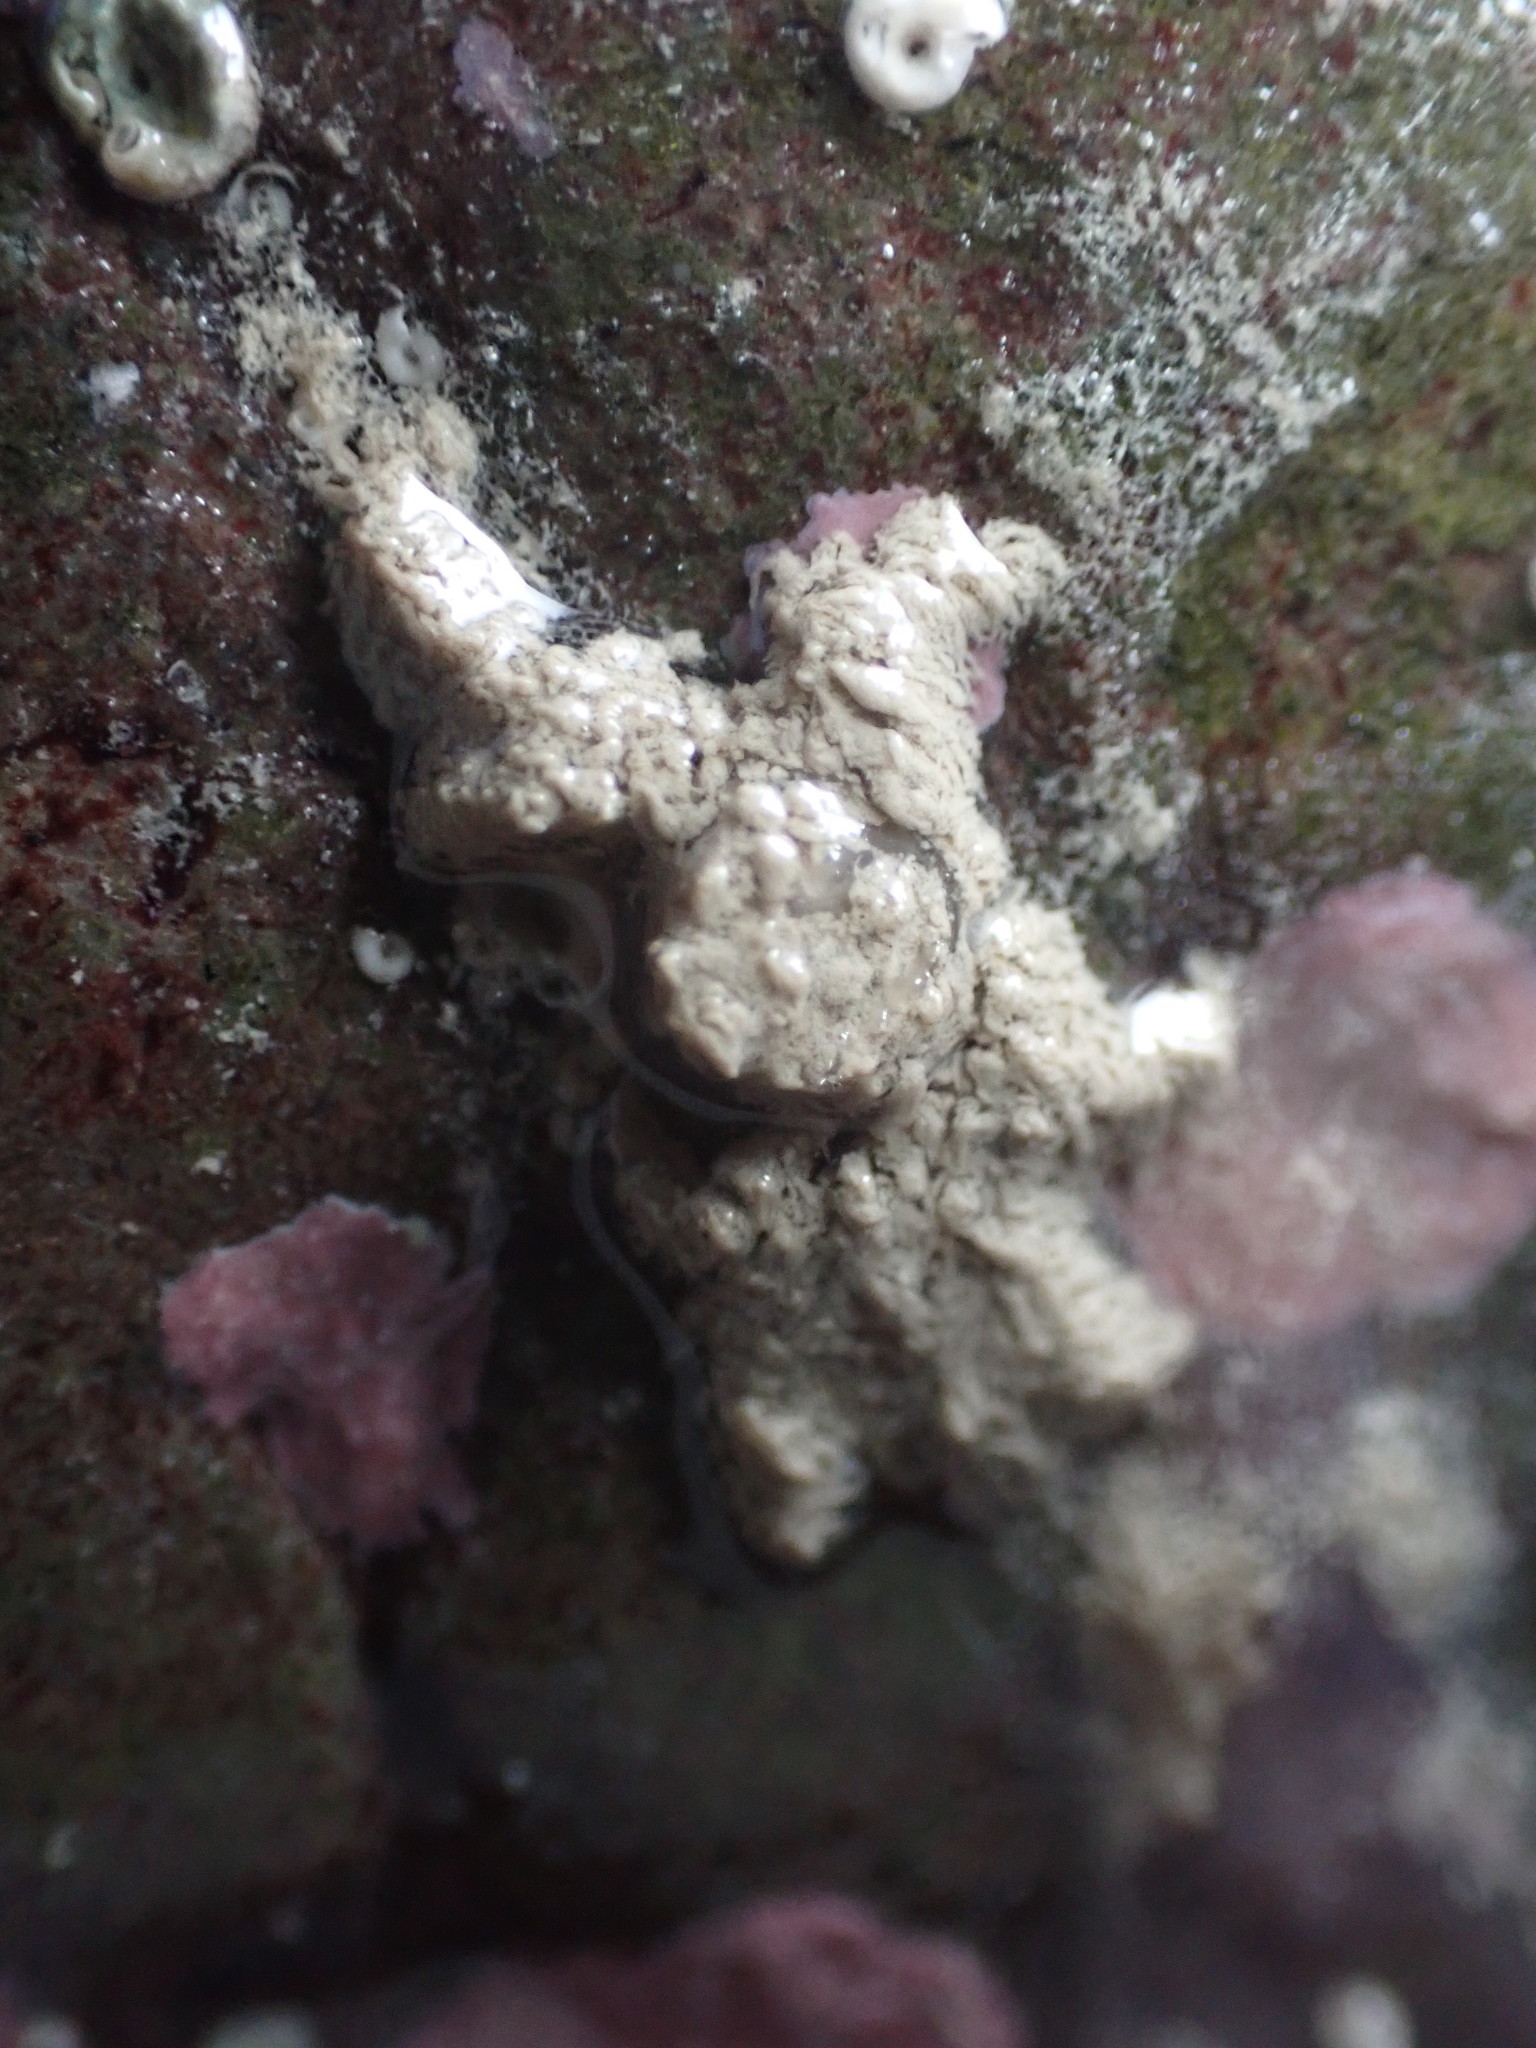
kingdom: Animalia
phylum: Arthropoda
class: Malacostraca
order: Decapoda
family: Hymenosomatidae
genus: Neohymenicus
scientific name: Neohymenicus pubescens
